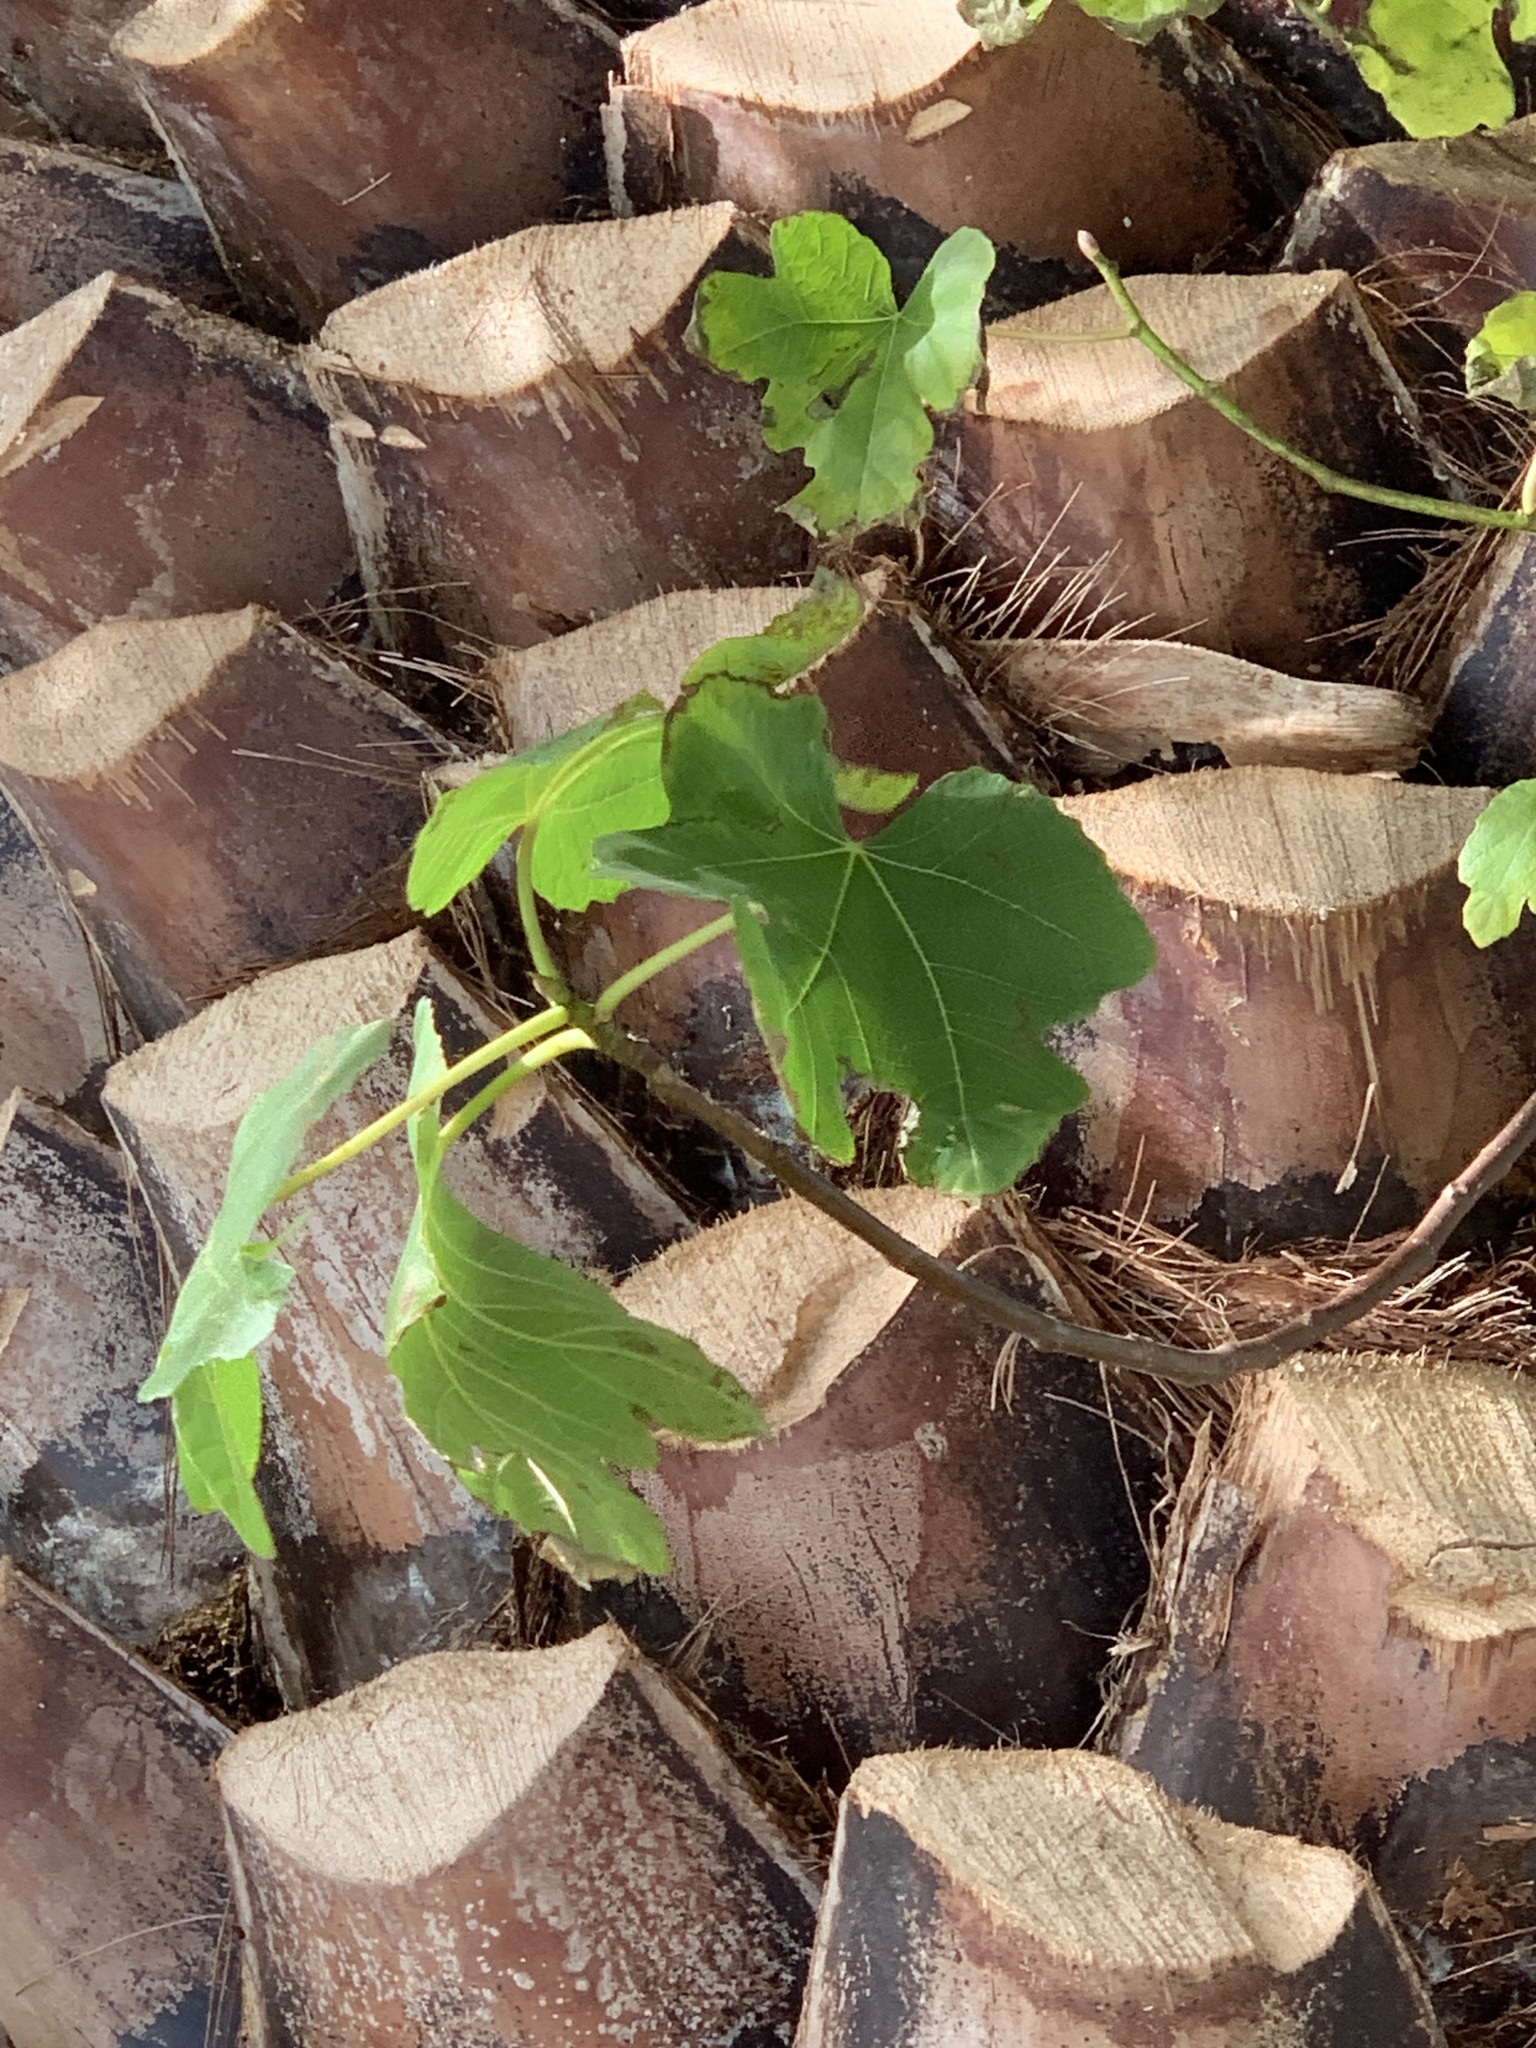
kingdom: Plantae
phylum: Tracheophyta
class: Magnoliopsida
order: Rosales
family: Moraceae
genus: Ficus
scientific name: Ficus carica
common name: Fig
